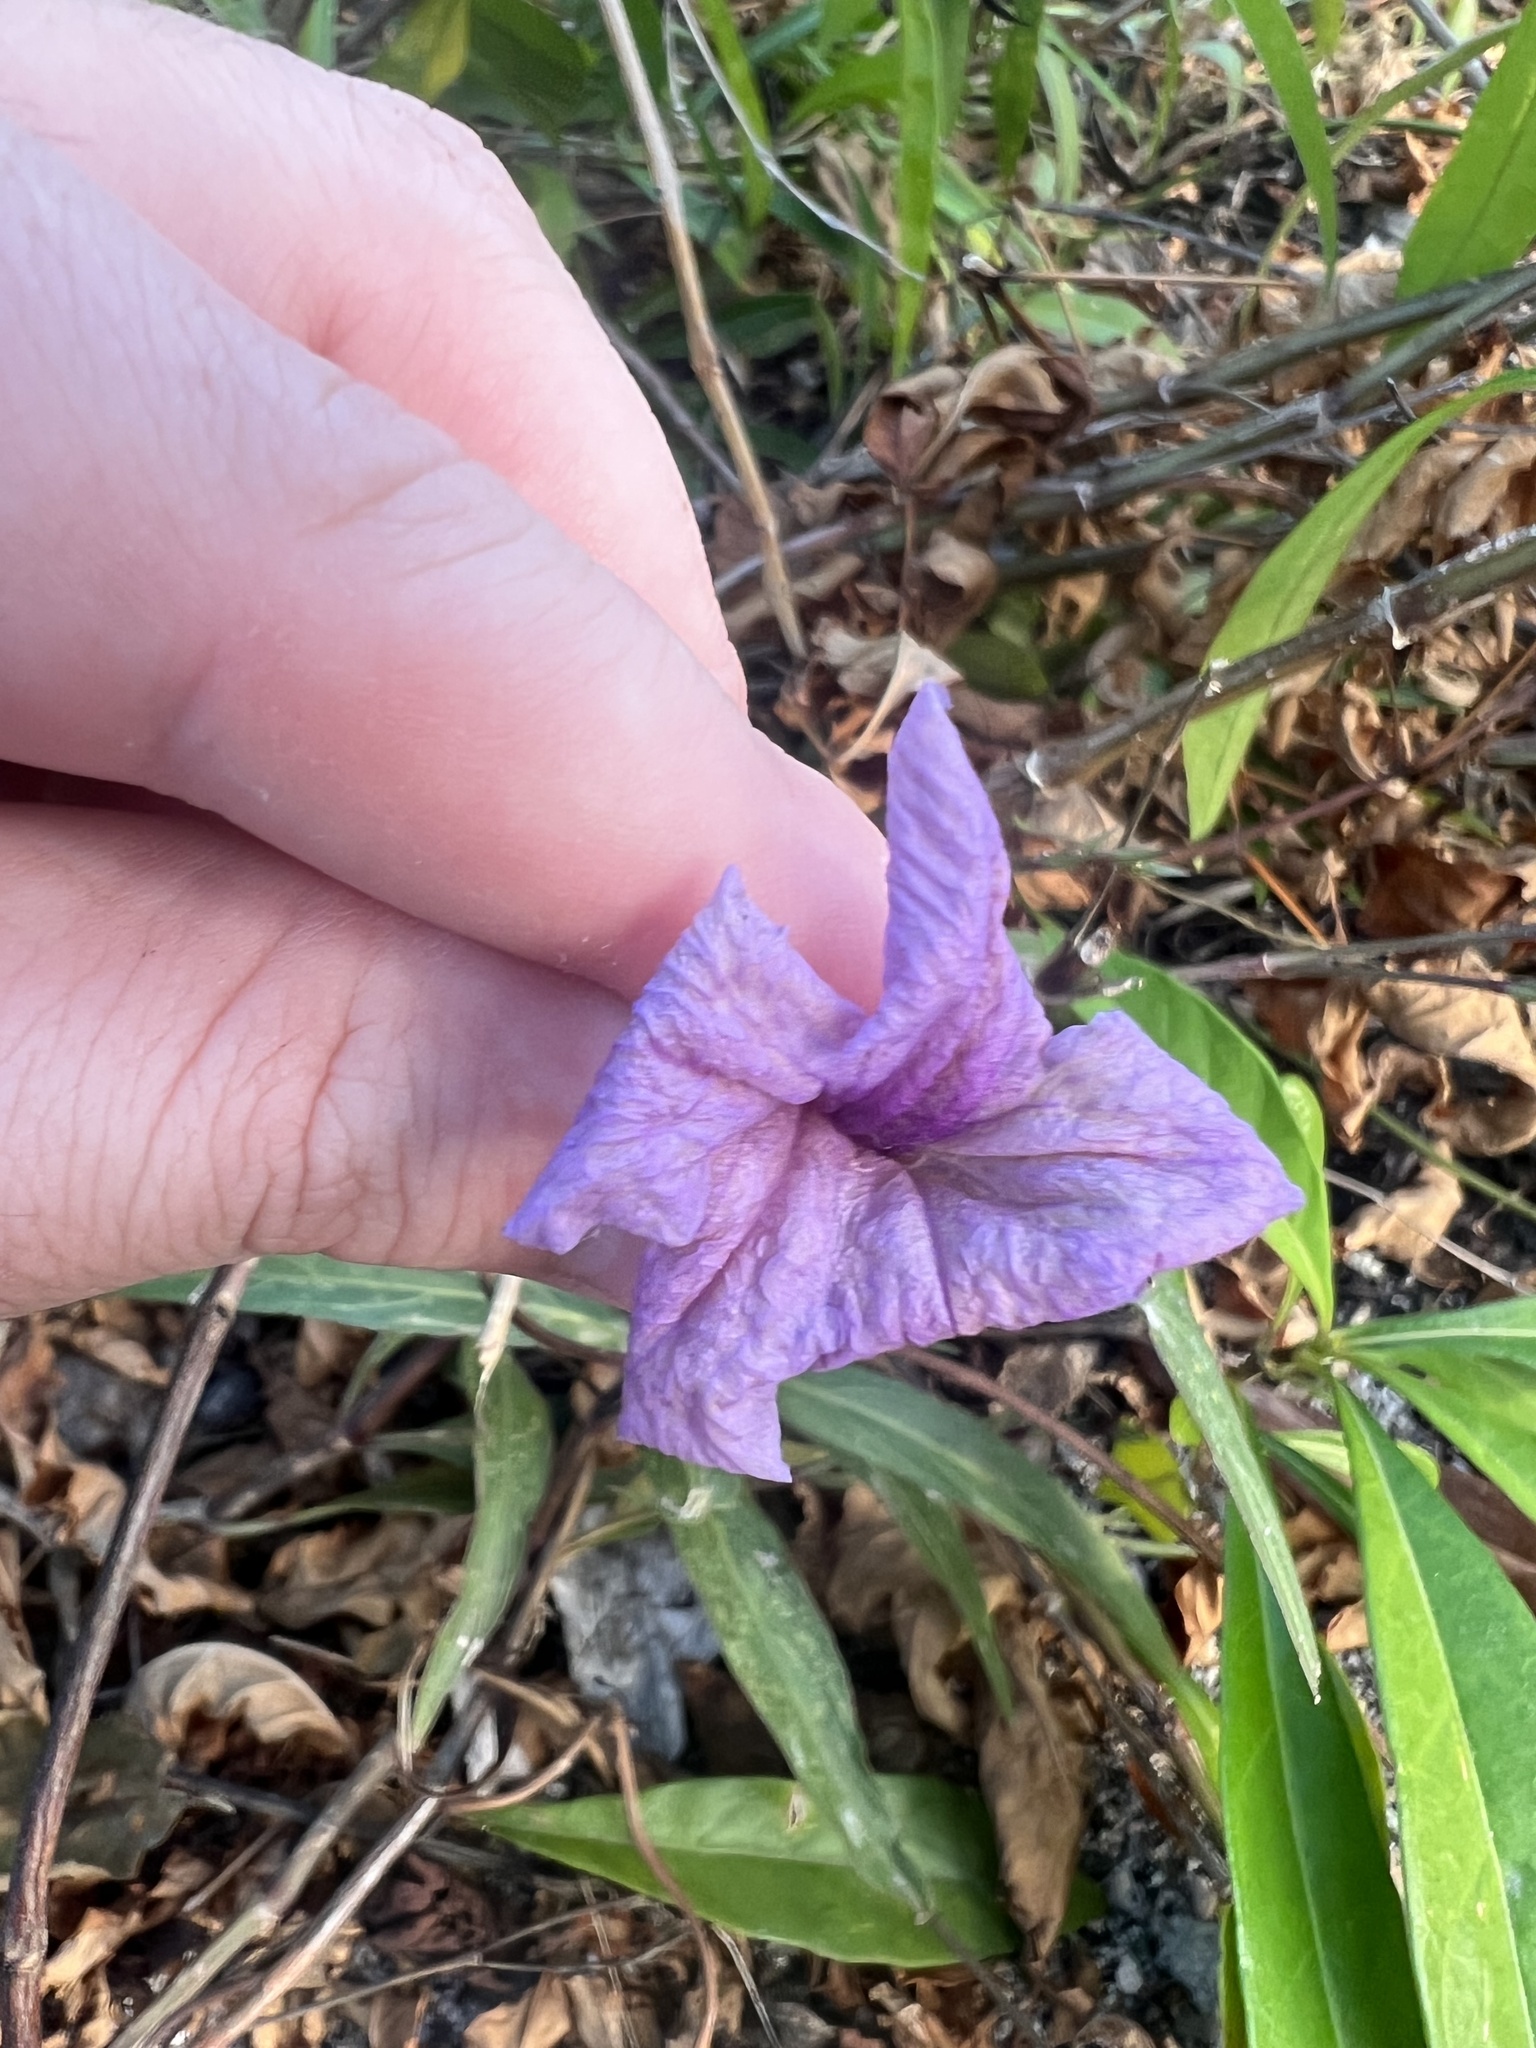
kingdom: Plantae
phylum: Tracheophyta
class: Magnoliopsida
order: Lamiales
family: Acanthaceae
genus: Ruellia
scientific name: Ruellia simplex
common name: Softseed wild petunia
